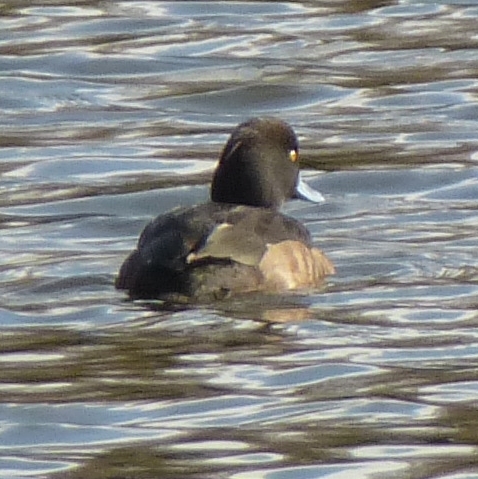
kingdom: Animalia
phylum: Chordata
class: Aves
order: Anseriformes
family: Anatidae
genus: Aythya
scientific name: Aythya fuligula
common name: Tufted duck
